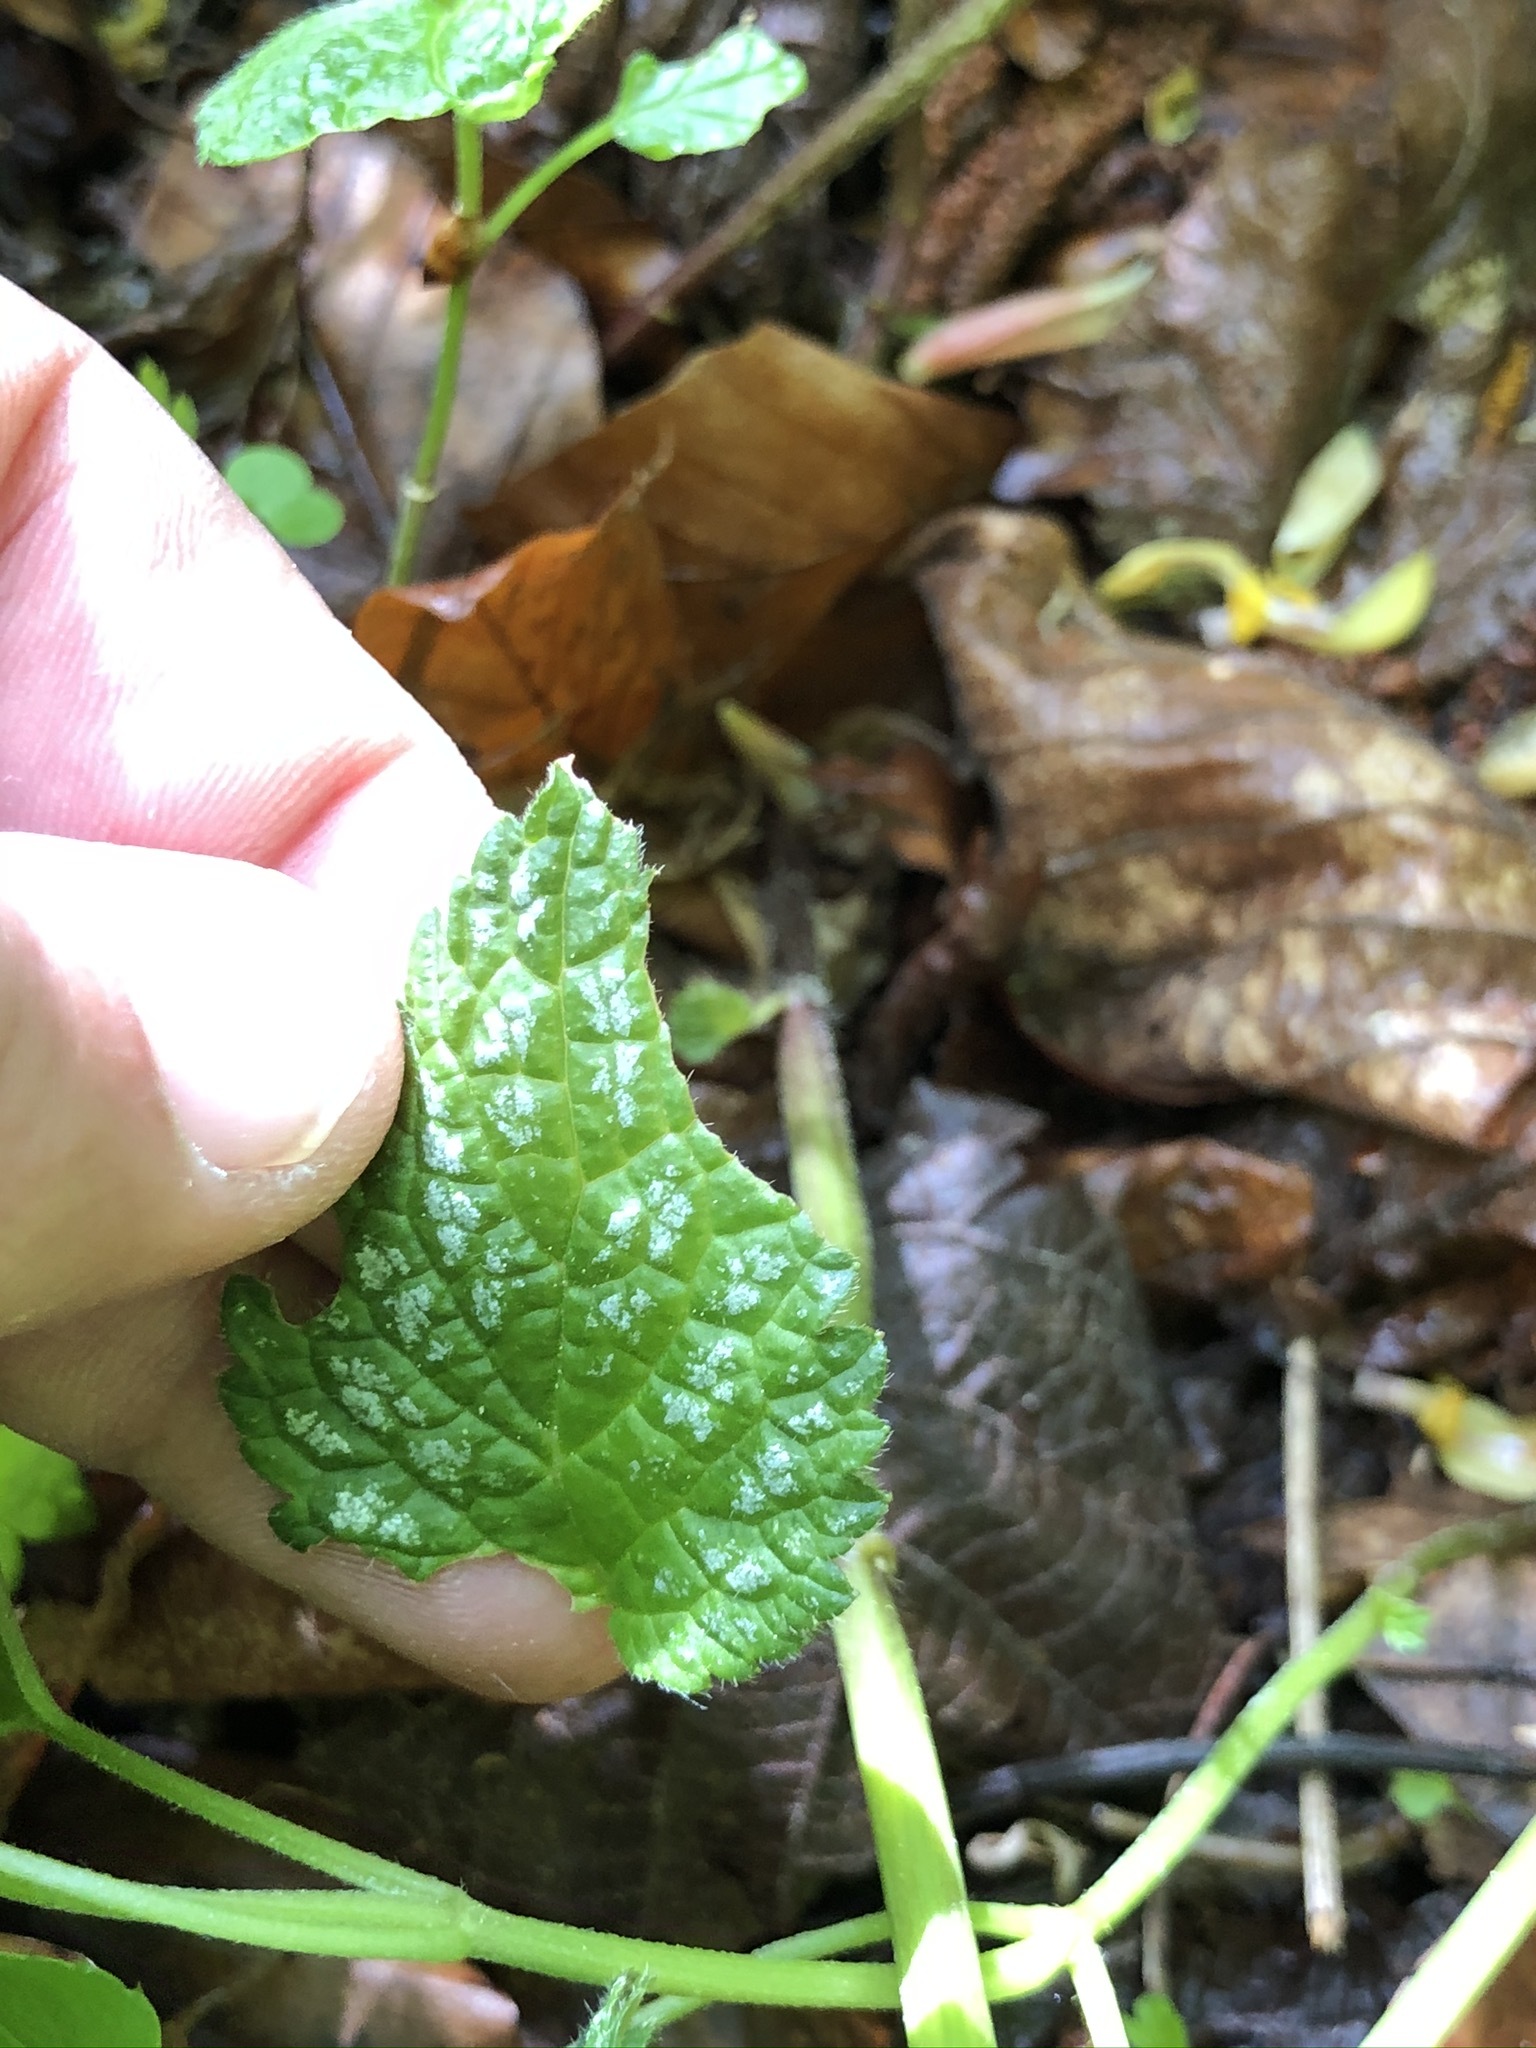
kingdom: Plantae
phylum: Tracheophyta
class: Magnoliopsida
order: Lamiales
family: Lamiaceae
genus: Lamium
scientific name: Lamium galeobdolon
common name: Yellow archangel
